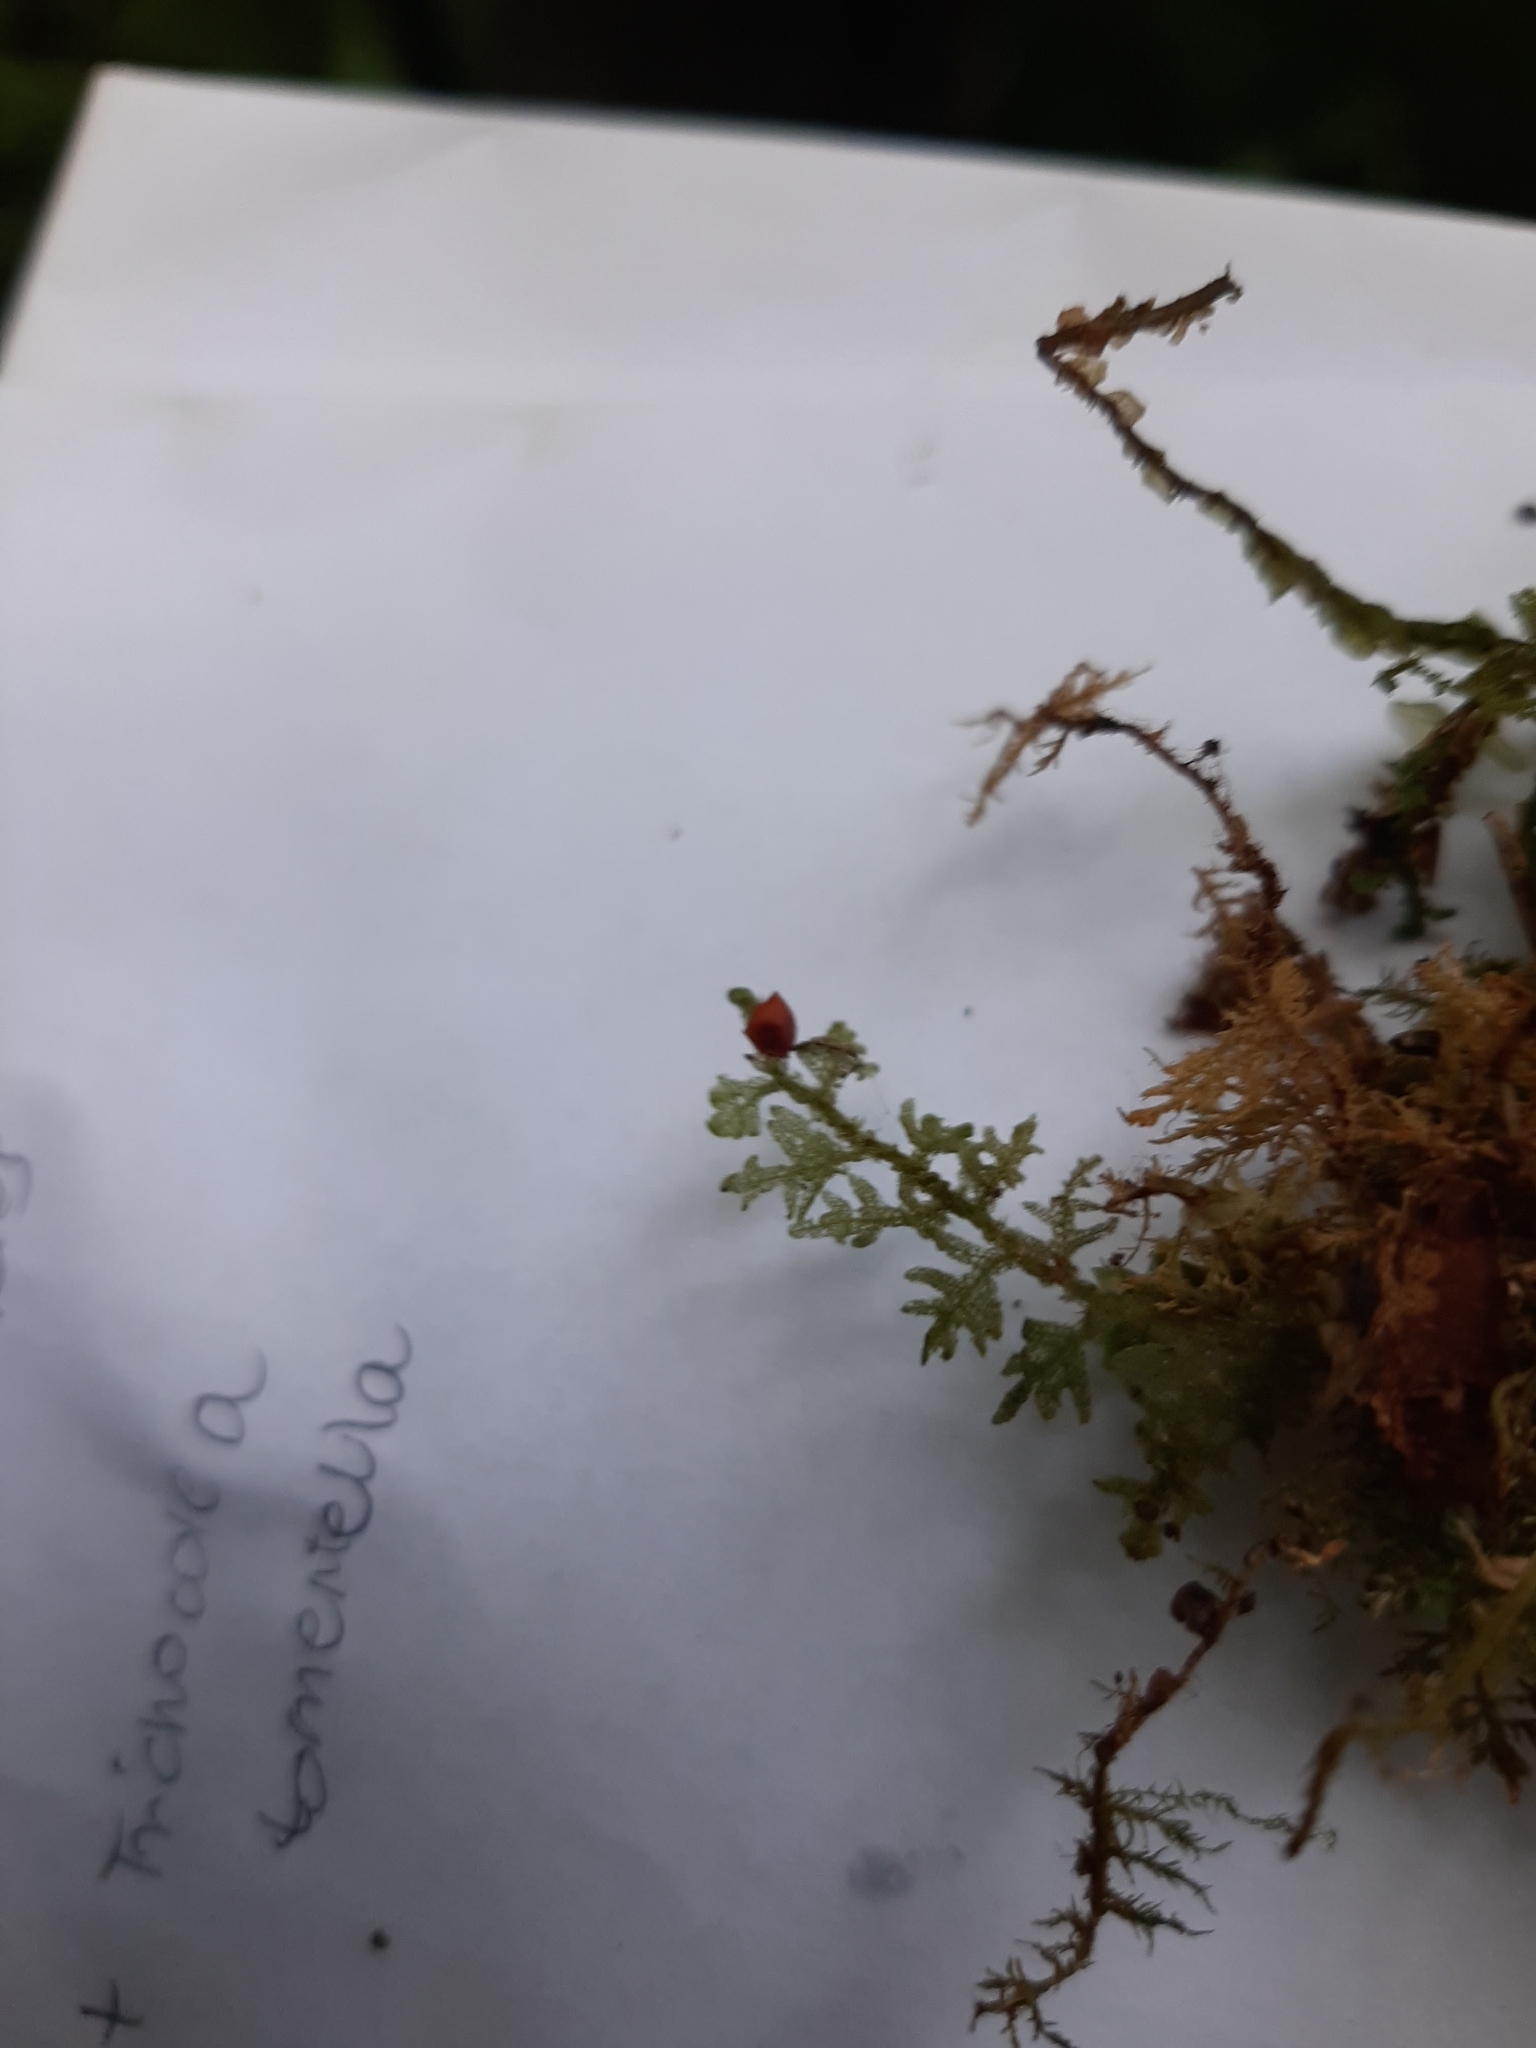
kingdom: Plantae
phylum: Marchantiophyta
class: Jungermanniopsida
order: Jungermanniales
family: Trichocoleaceae
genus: Trichocolea
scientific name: Trichocolea tomentella
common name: Woolly liverwort
